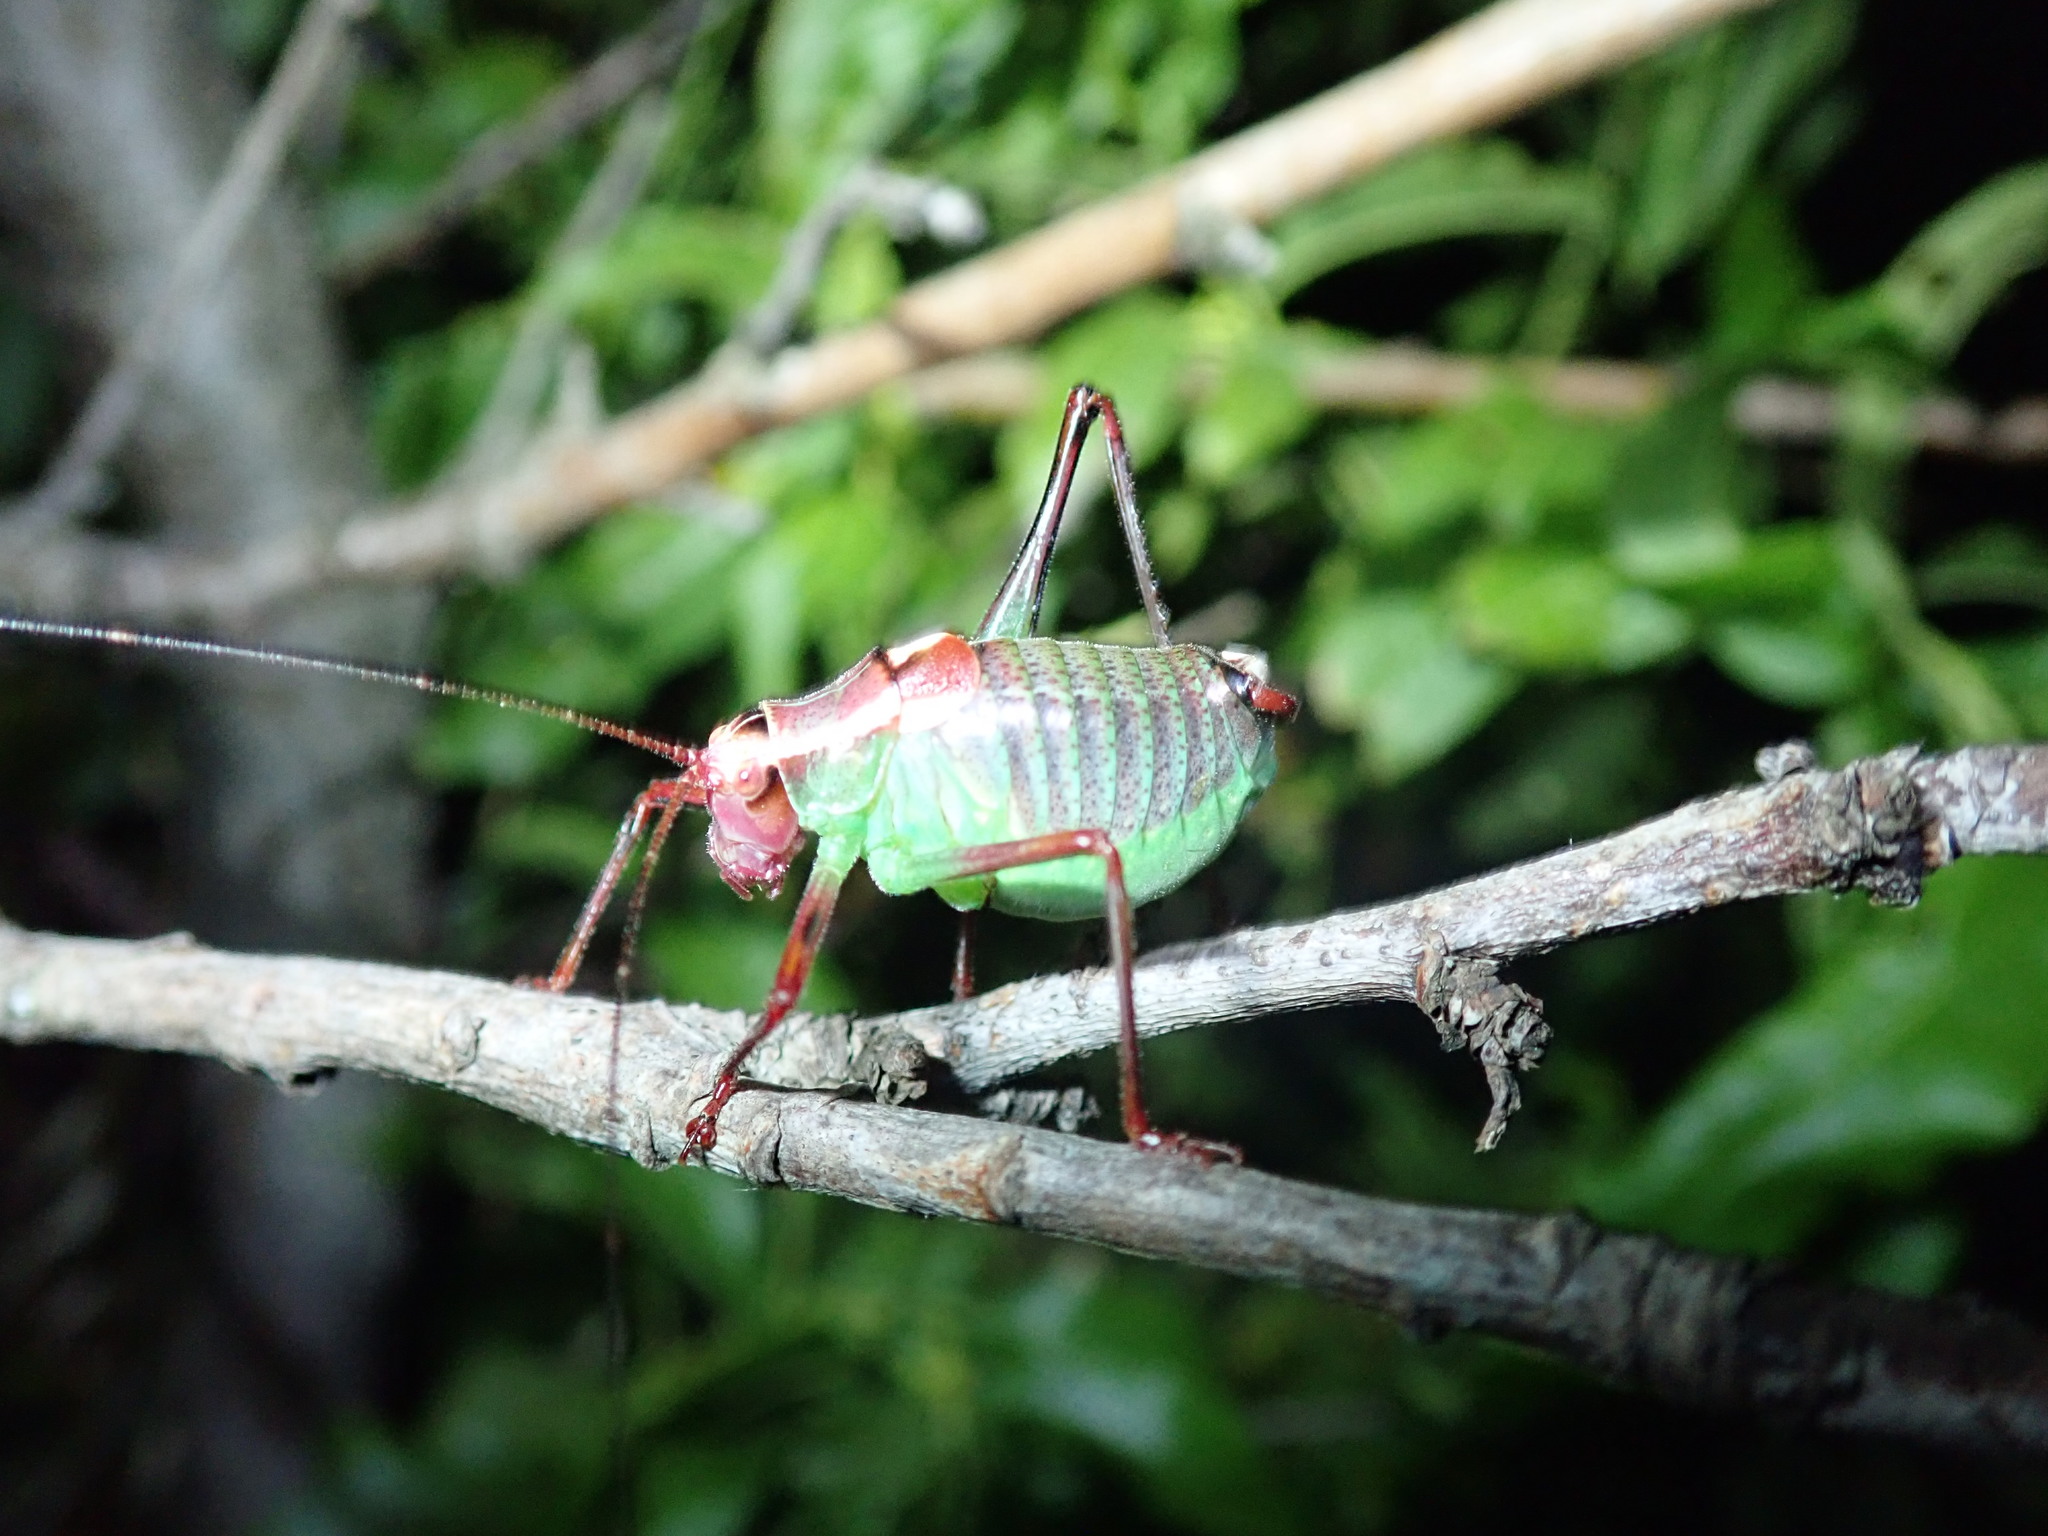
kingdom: Animalia
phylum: Arthropoda
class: Insecta
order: Orthoptera
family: Tettigoniidae
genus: Barbitistes
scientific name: Barbitistes ocskayi
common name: Black saw bush-cricket
